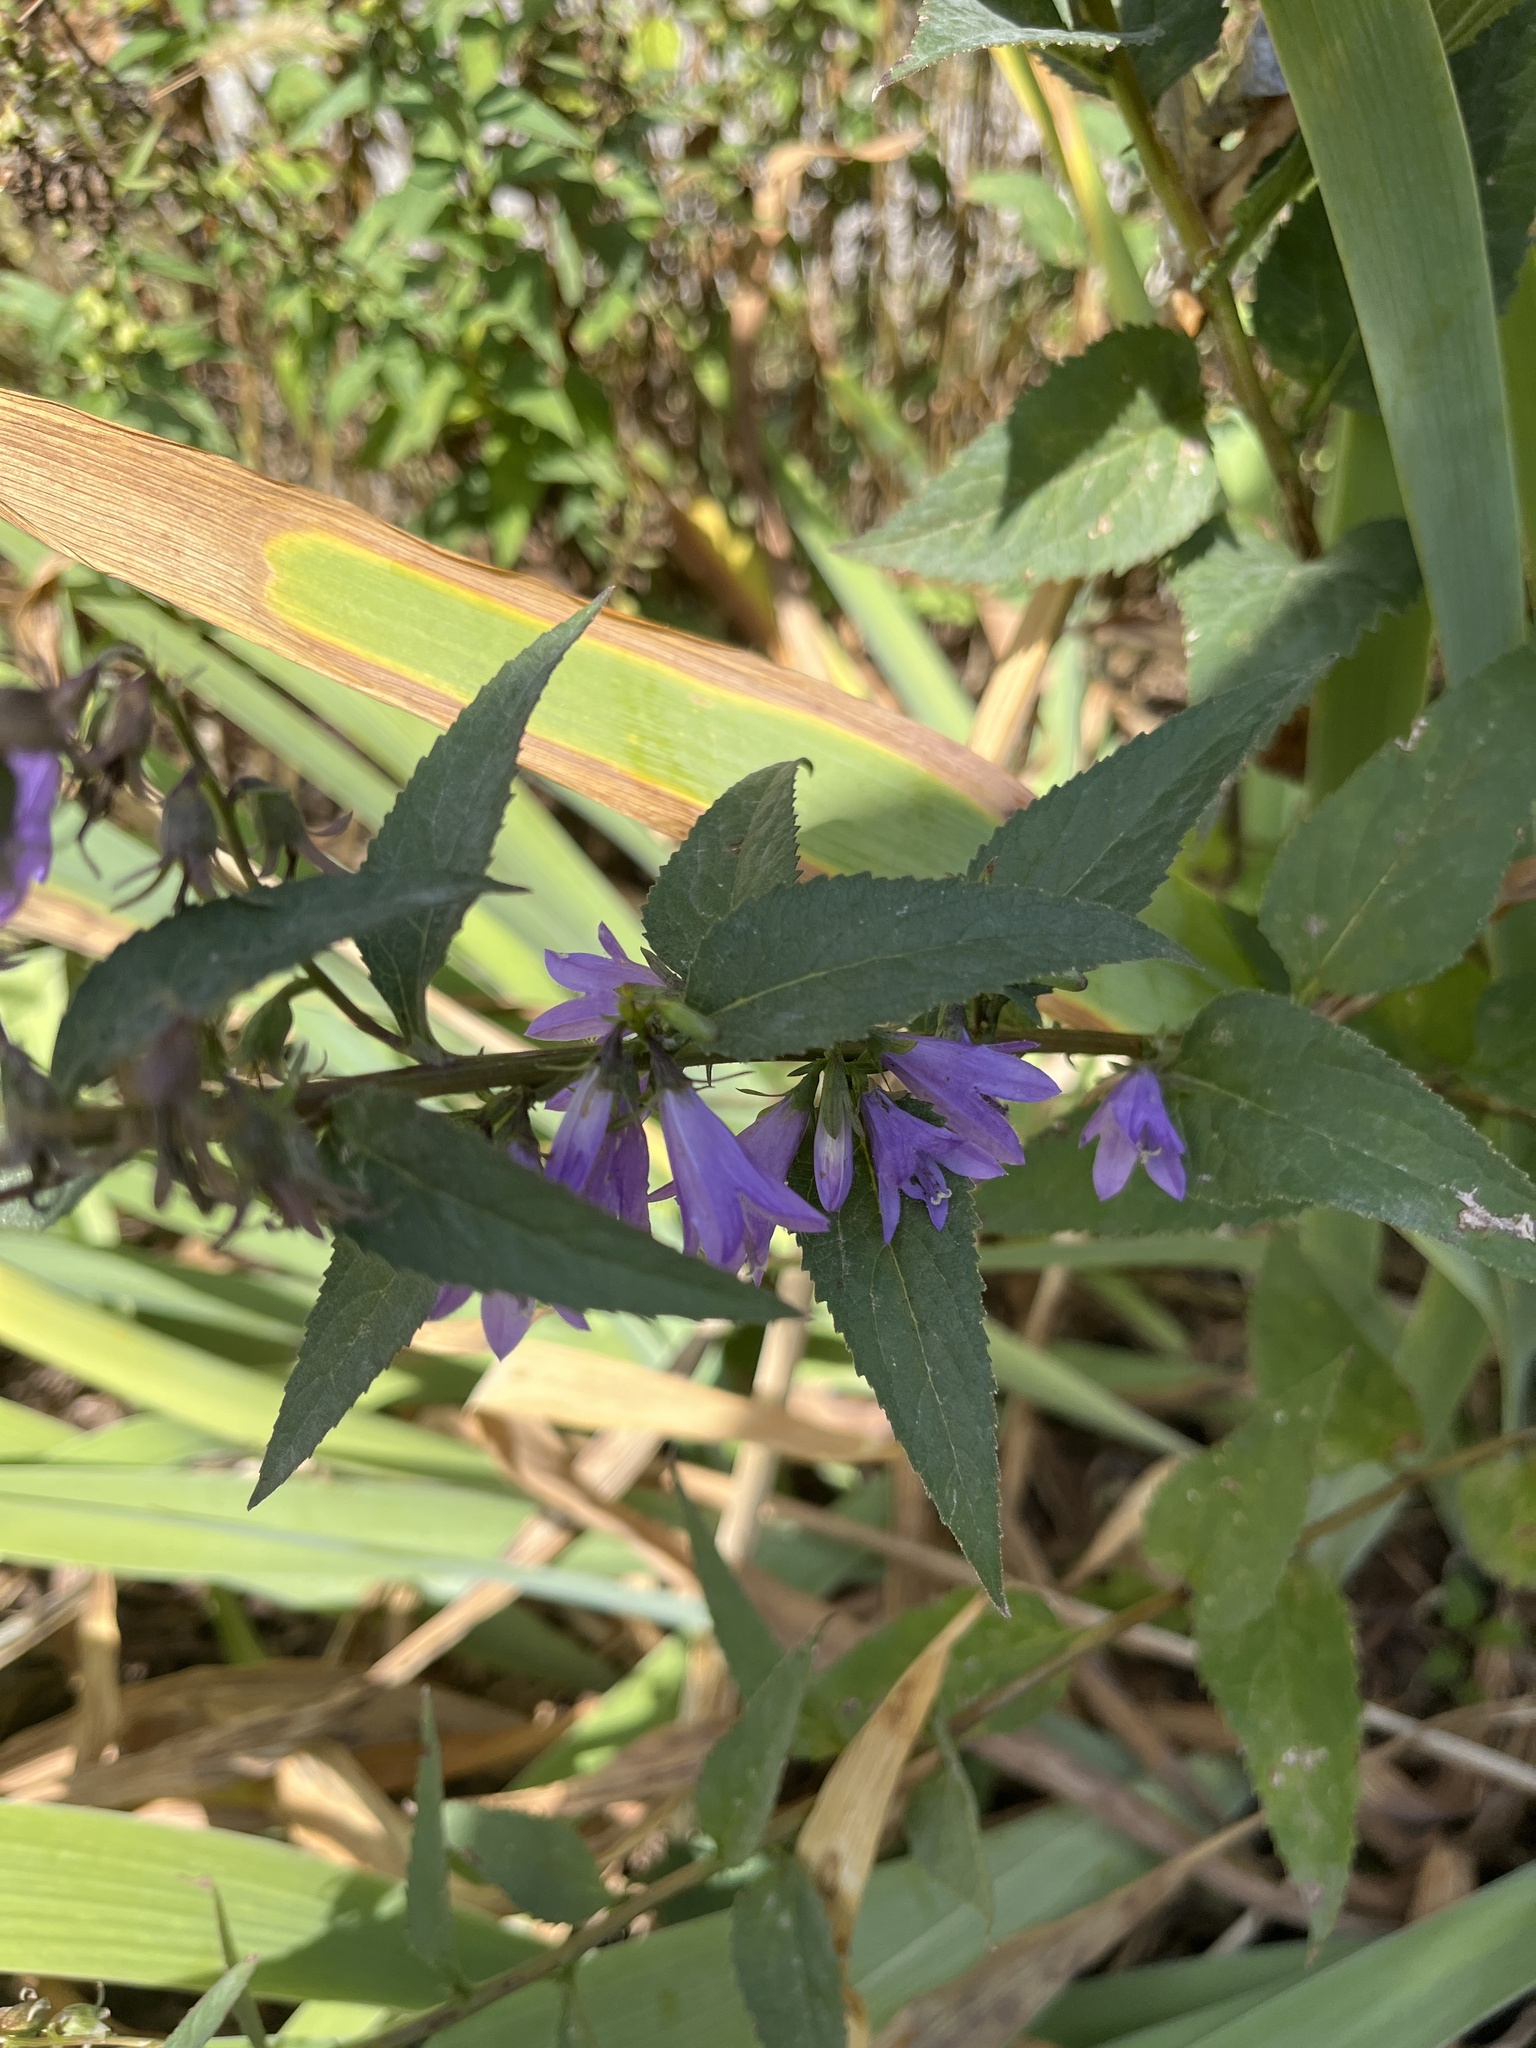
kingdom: Plantae
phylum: Tracheophyta
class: Magnoliopsida
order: Asterales
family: Campanulaceae
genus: Campanula
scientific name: Campanula rapunculoides
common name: Creeping bellflower
